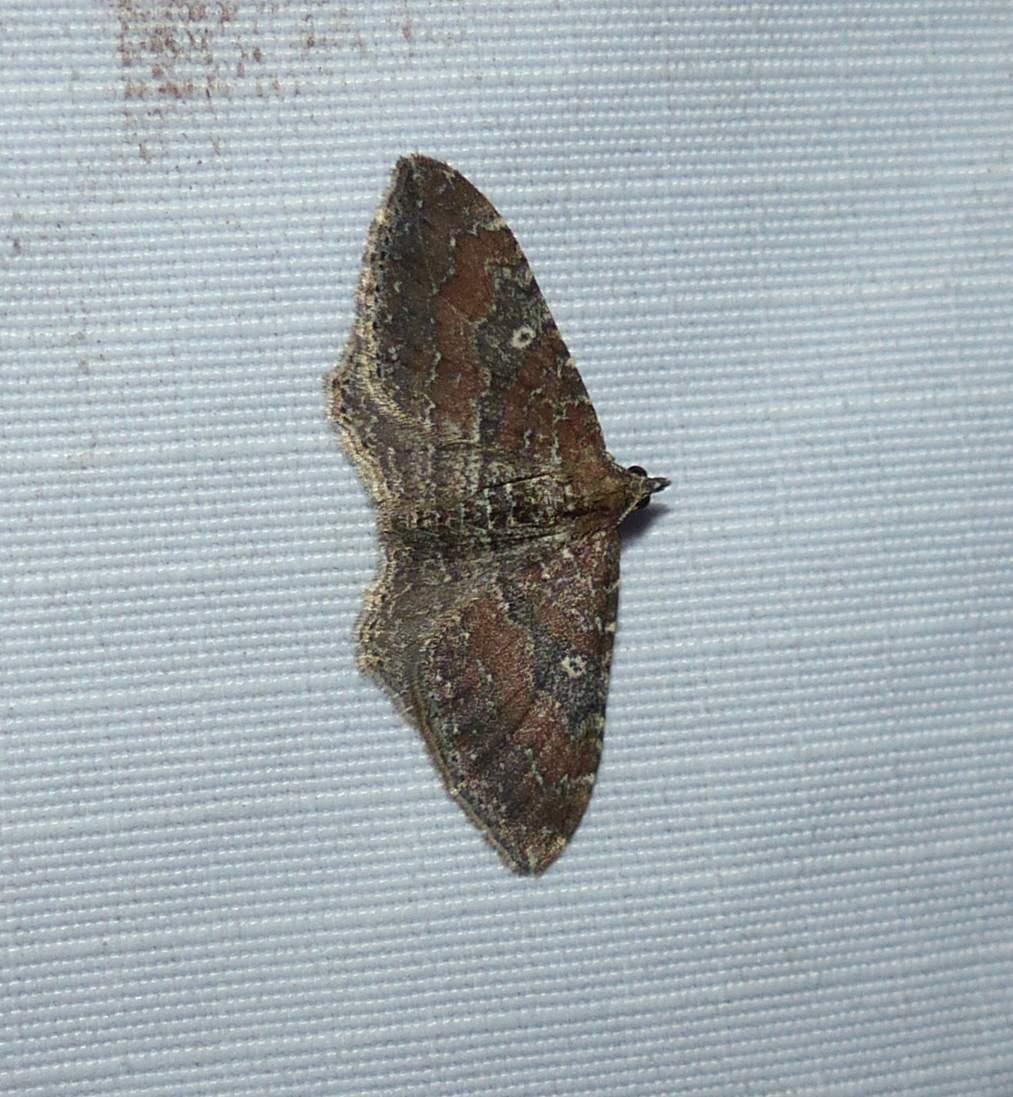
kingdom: Animalia
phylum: Arthropoda
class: Insecta
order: Lepidoptera
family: Geometridae
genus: Orthonama
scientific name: Orthonama obstipata
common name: The gem
